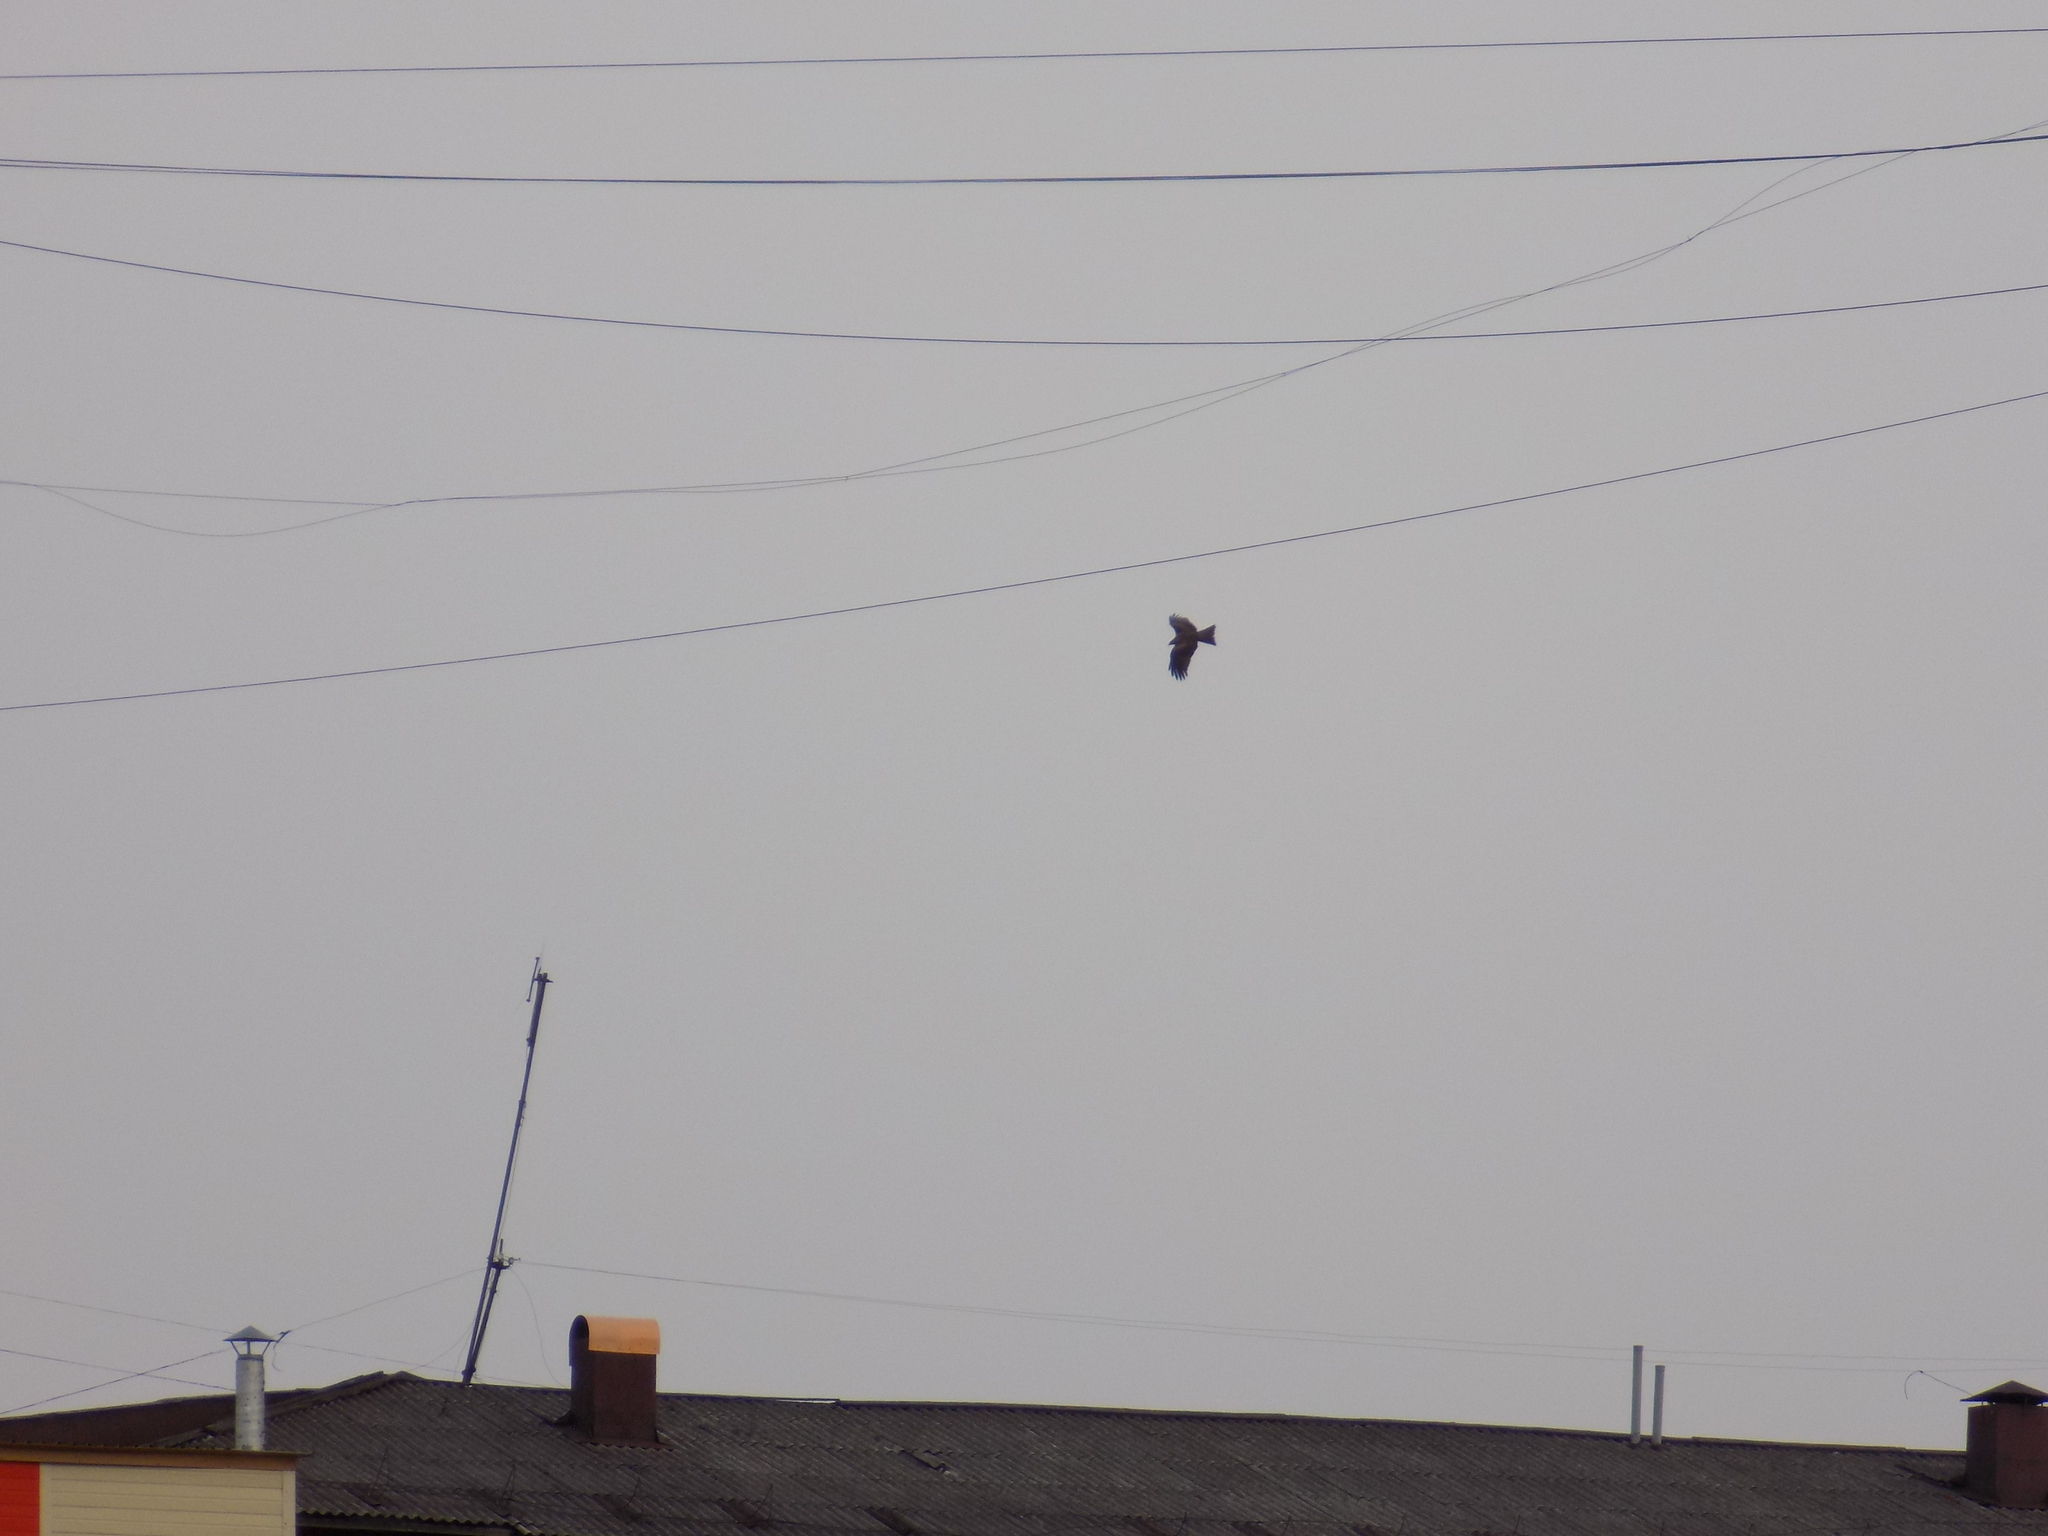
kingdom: Animalia
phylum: Chordata
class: Aves
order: Accipitriformes
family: Accipitridae
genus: Milvus
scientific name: Milvus migrans
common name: Black kite
